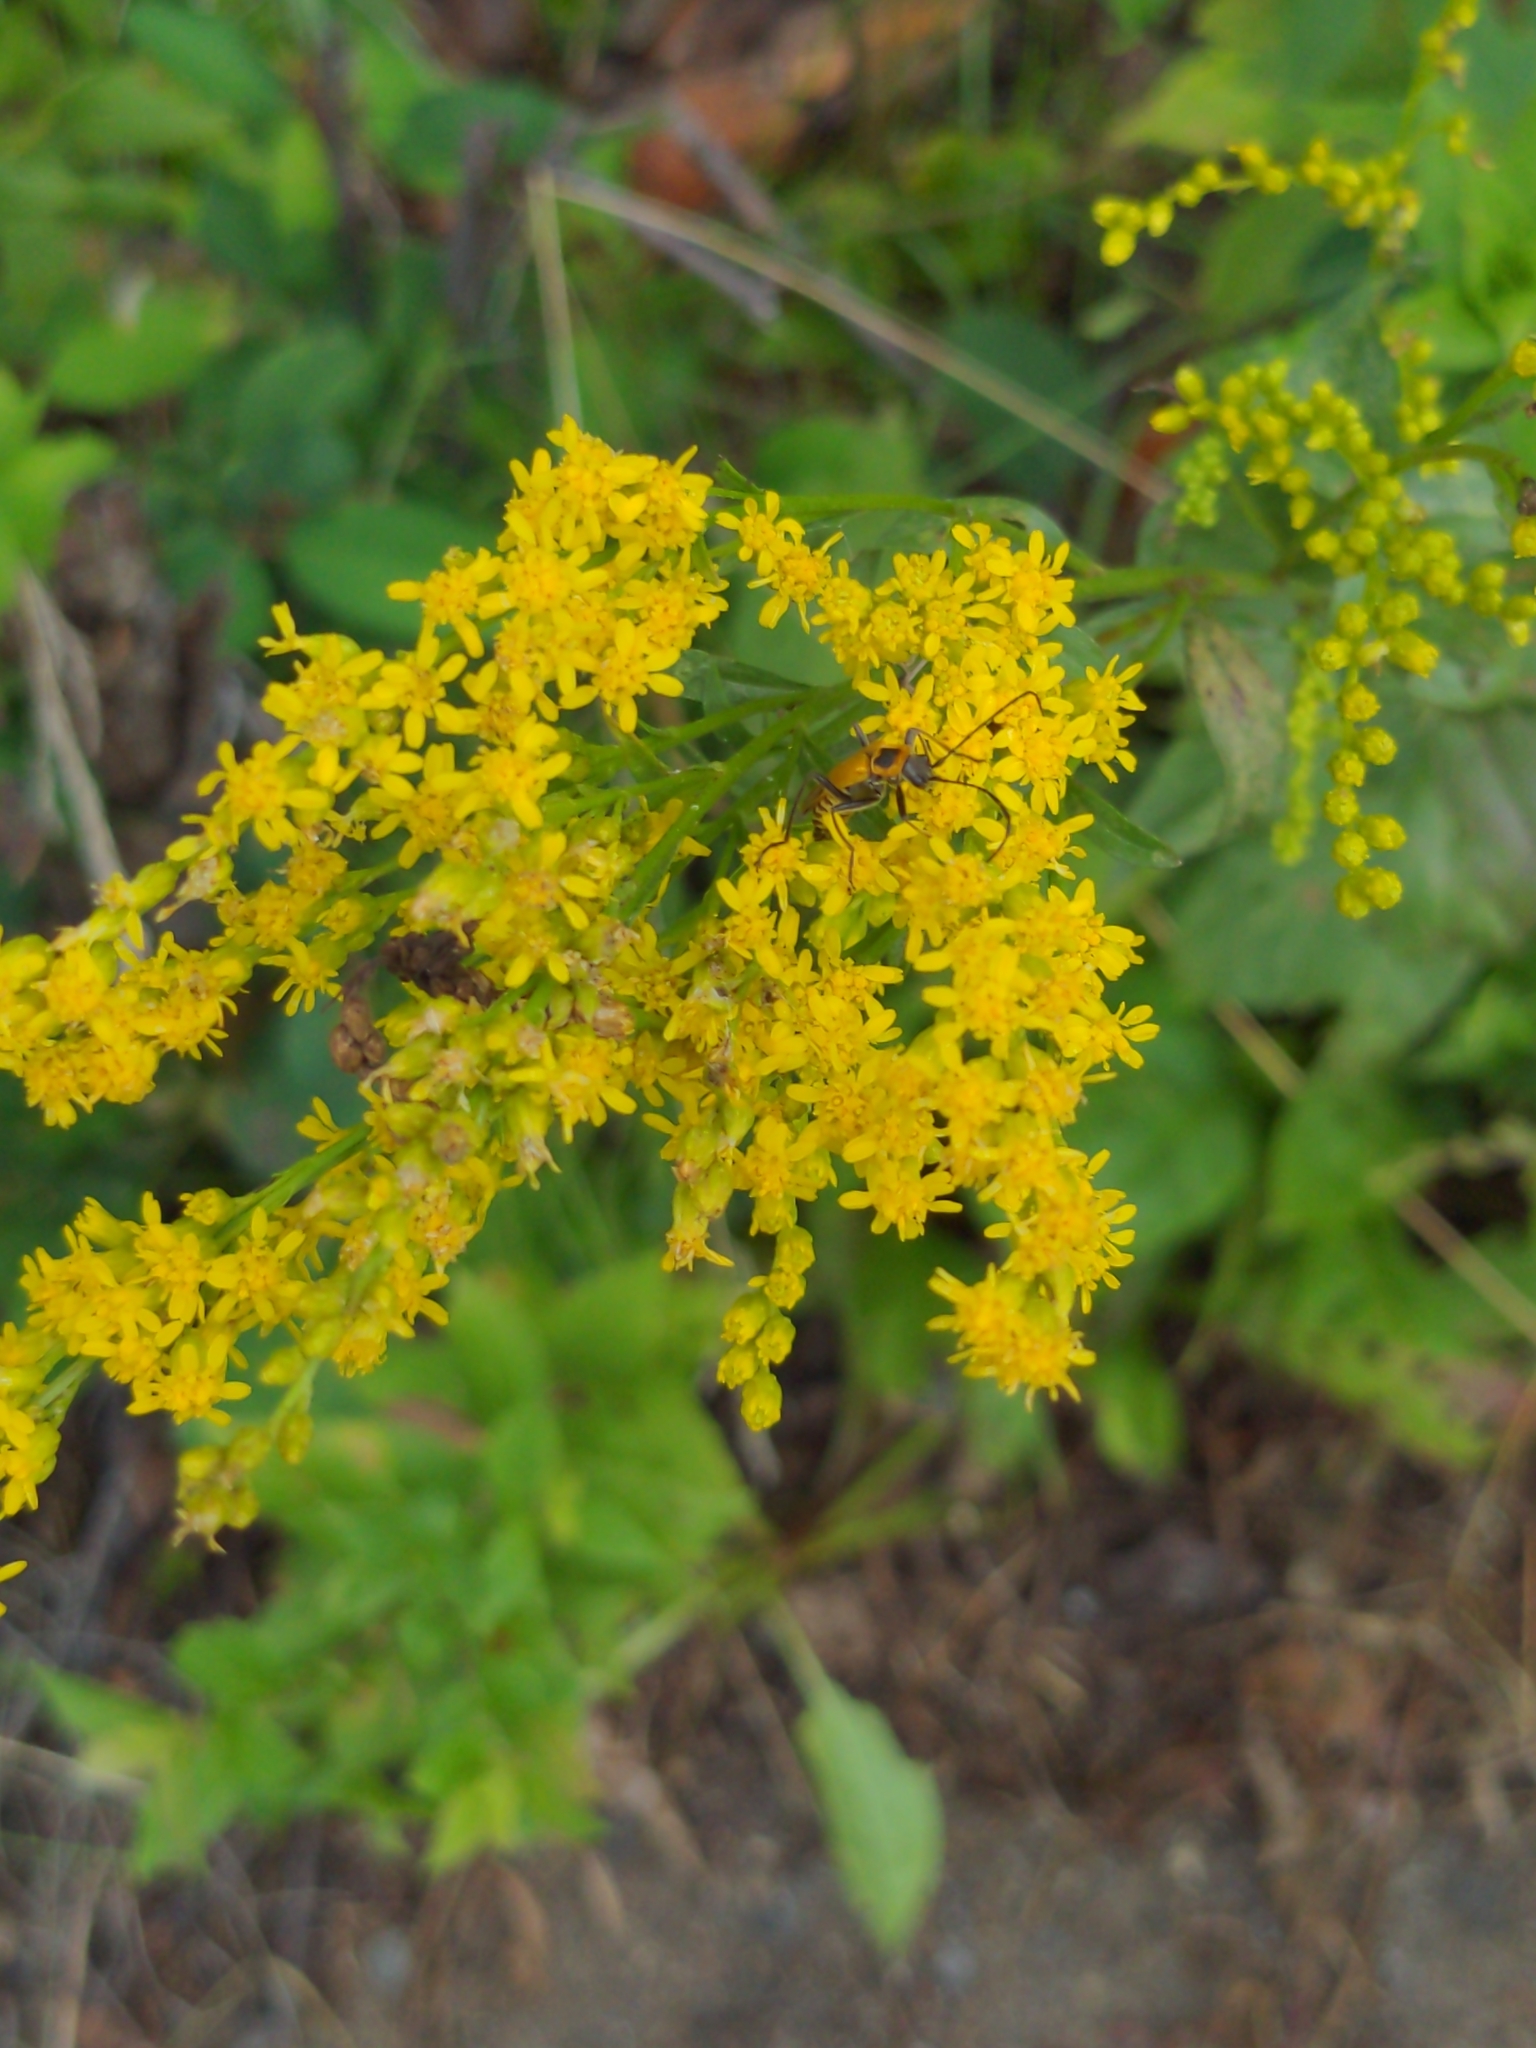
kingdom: Animalia
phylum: Arthropoda
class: Insecta
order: Coleoptera
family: Cantharidae
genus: Chauliognathus
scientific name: Chauliognathus pensylvanicus
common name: Goldenrod soldier beetle
